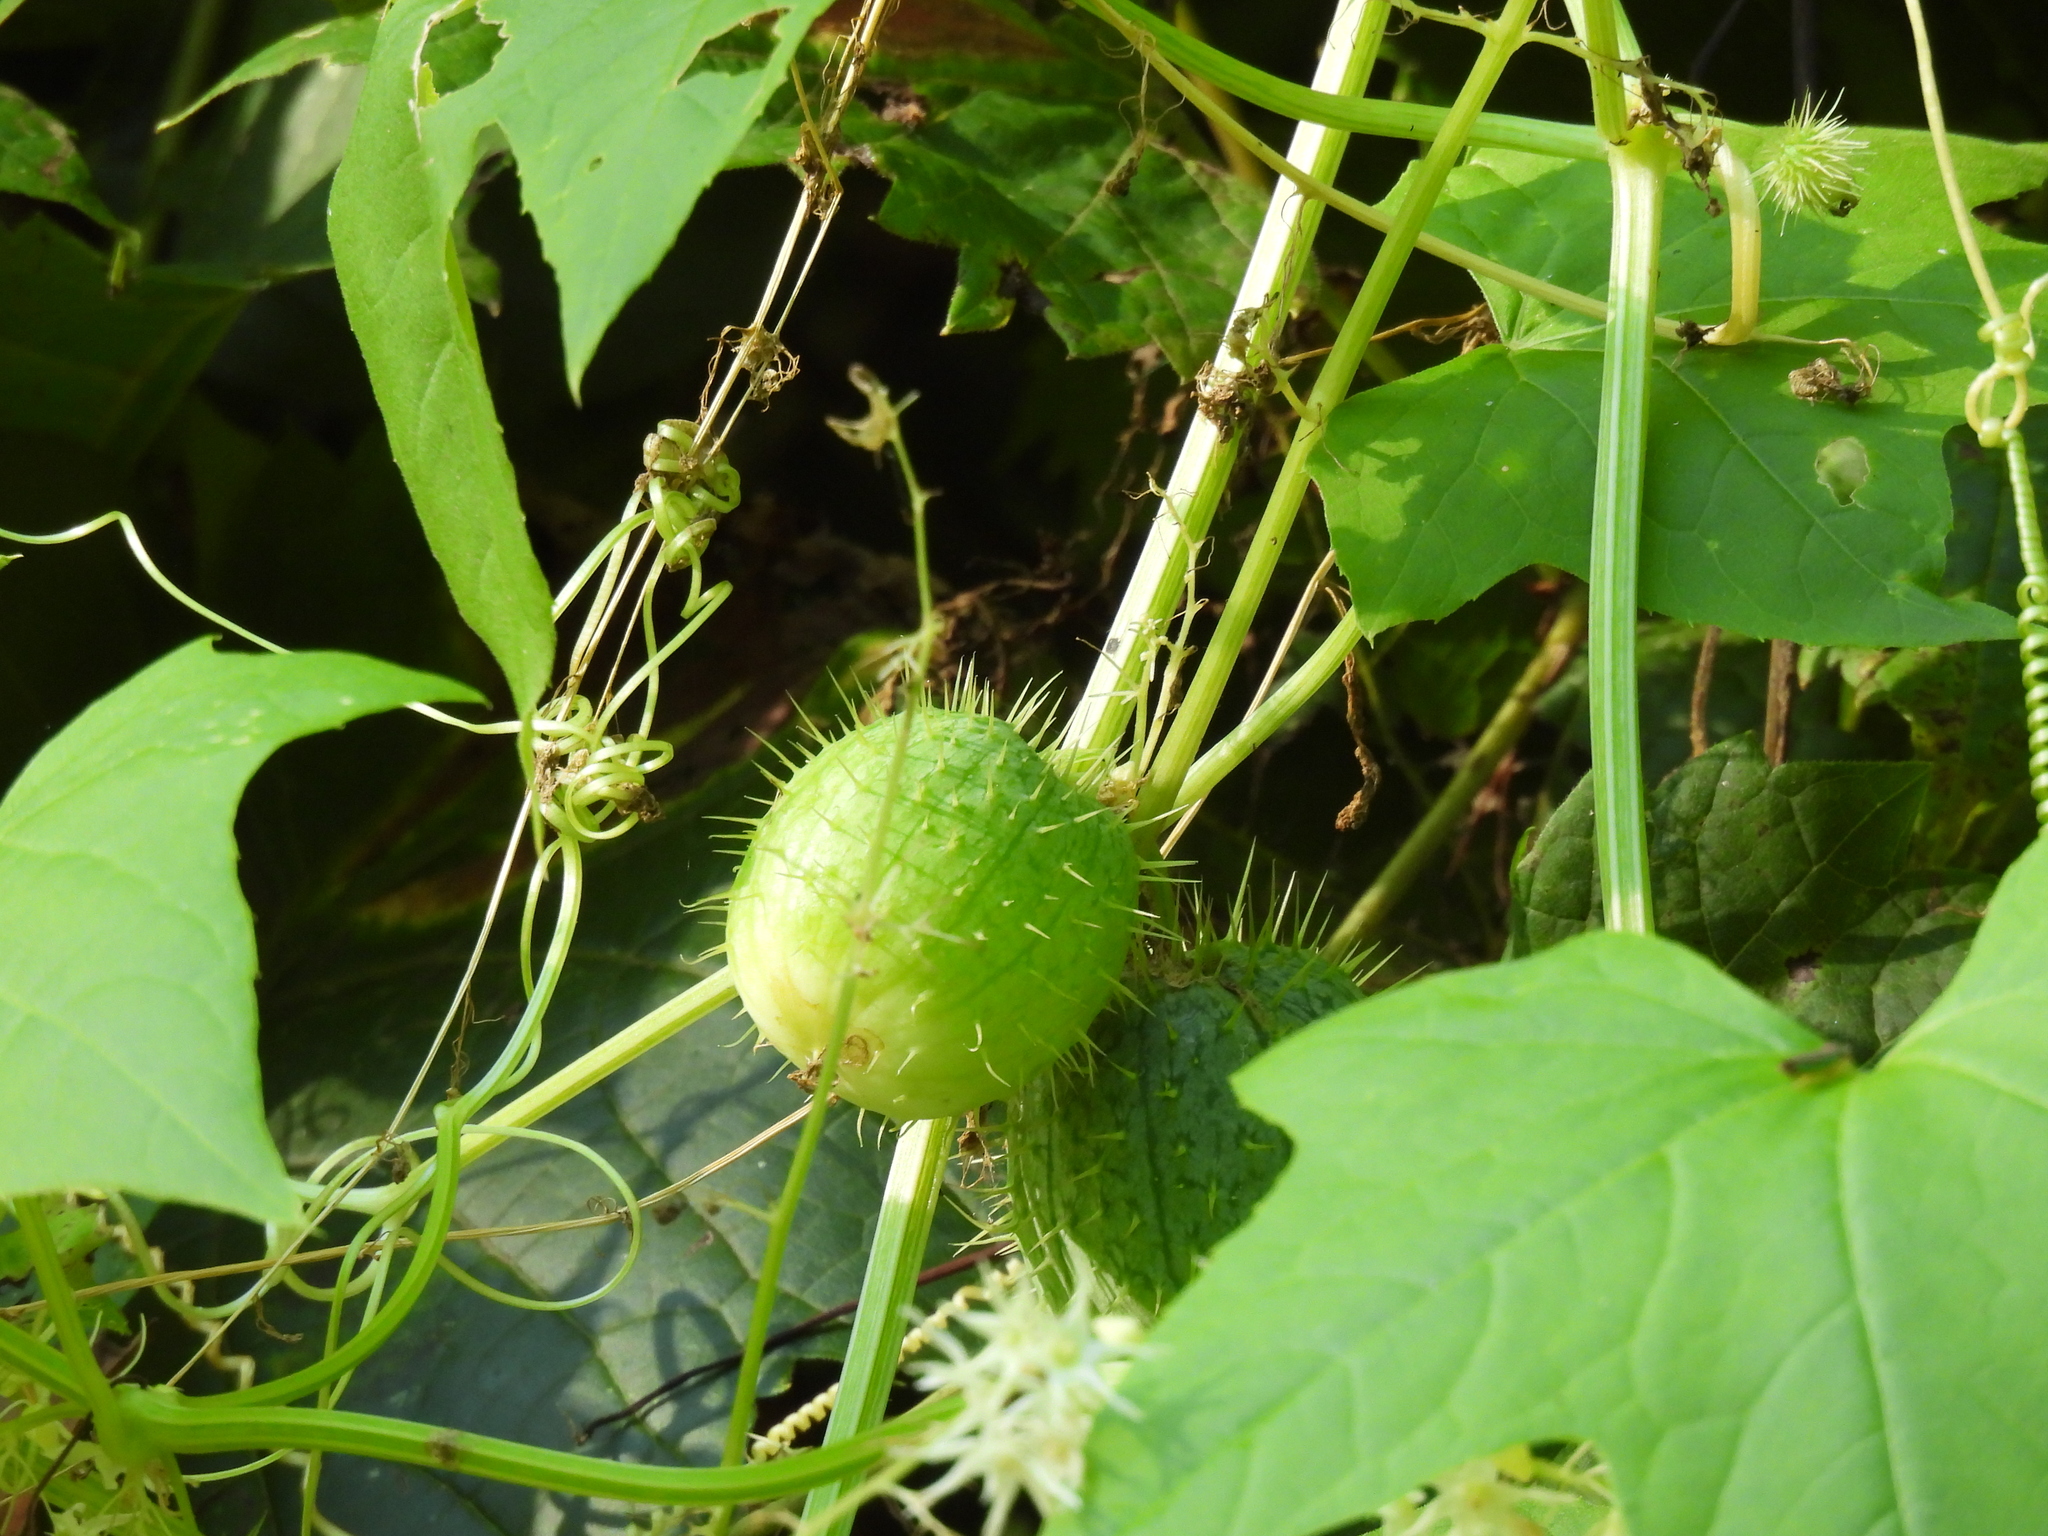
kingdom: Plantae
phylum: Tracheophyta
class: Magnoliopsida
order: Cucurbitales
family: Cucurbitaceae
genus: Echinocystis
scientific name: Echinocystis lobata
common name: Wild cucumber
